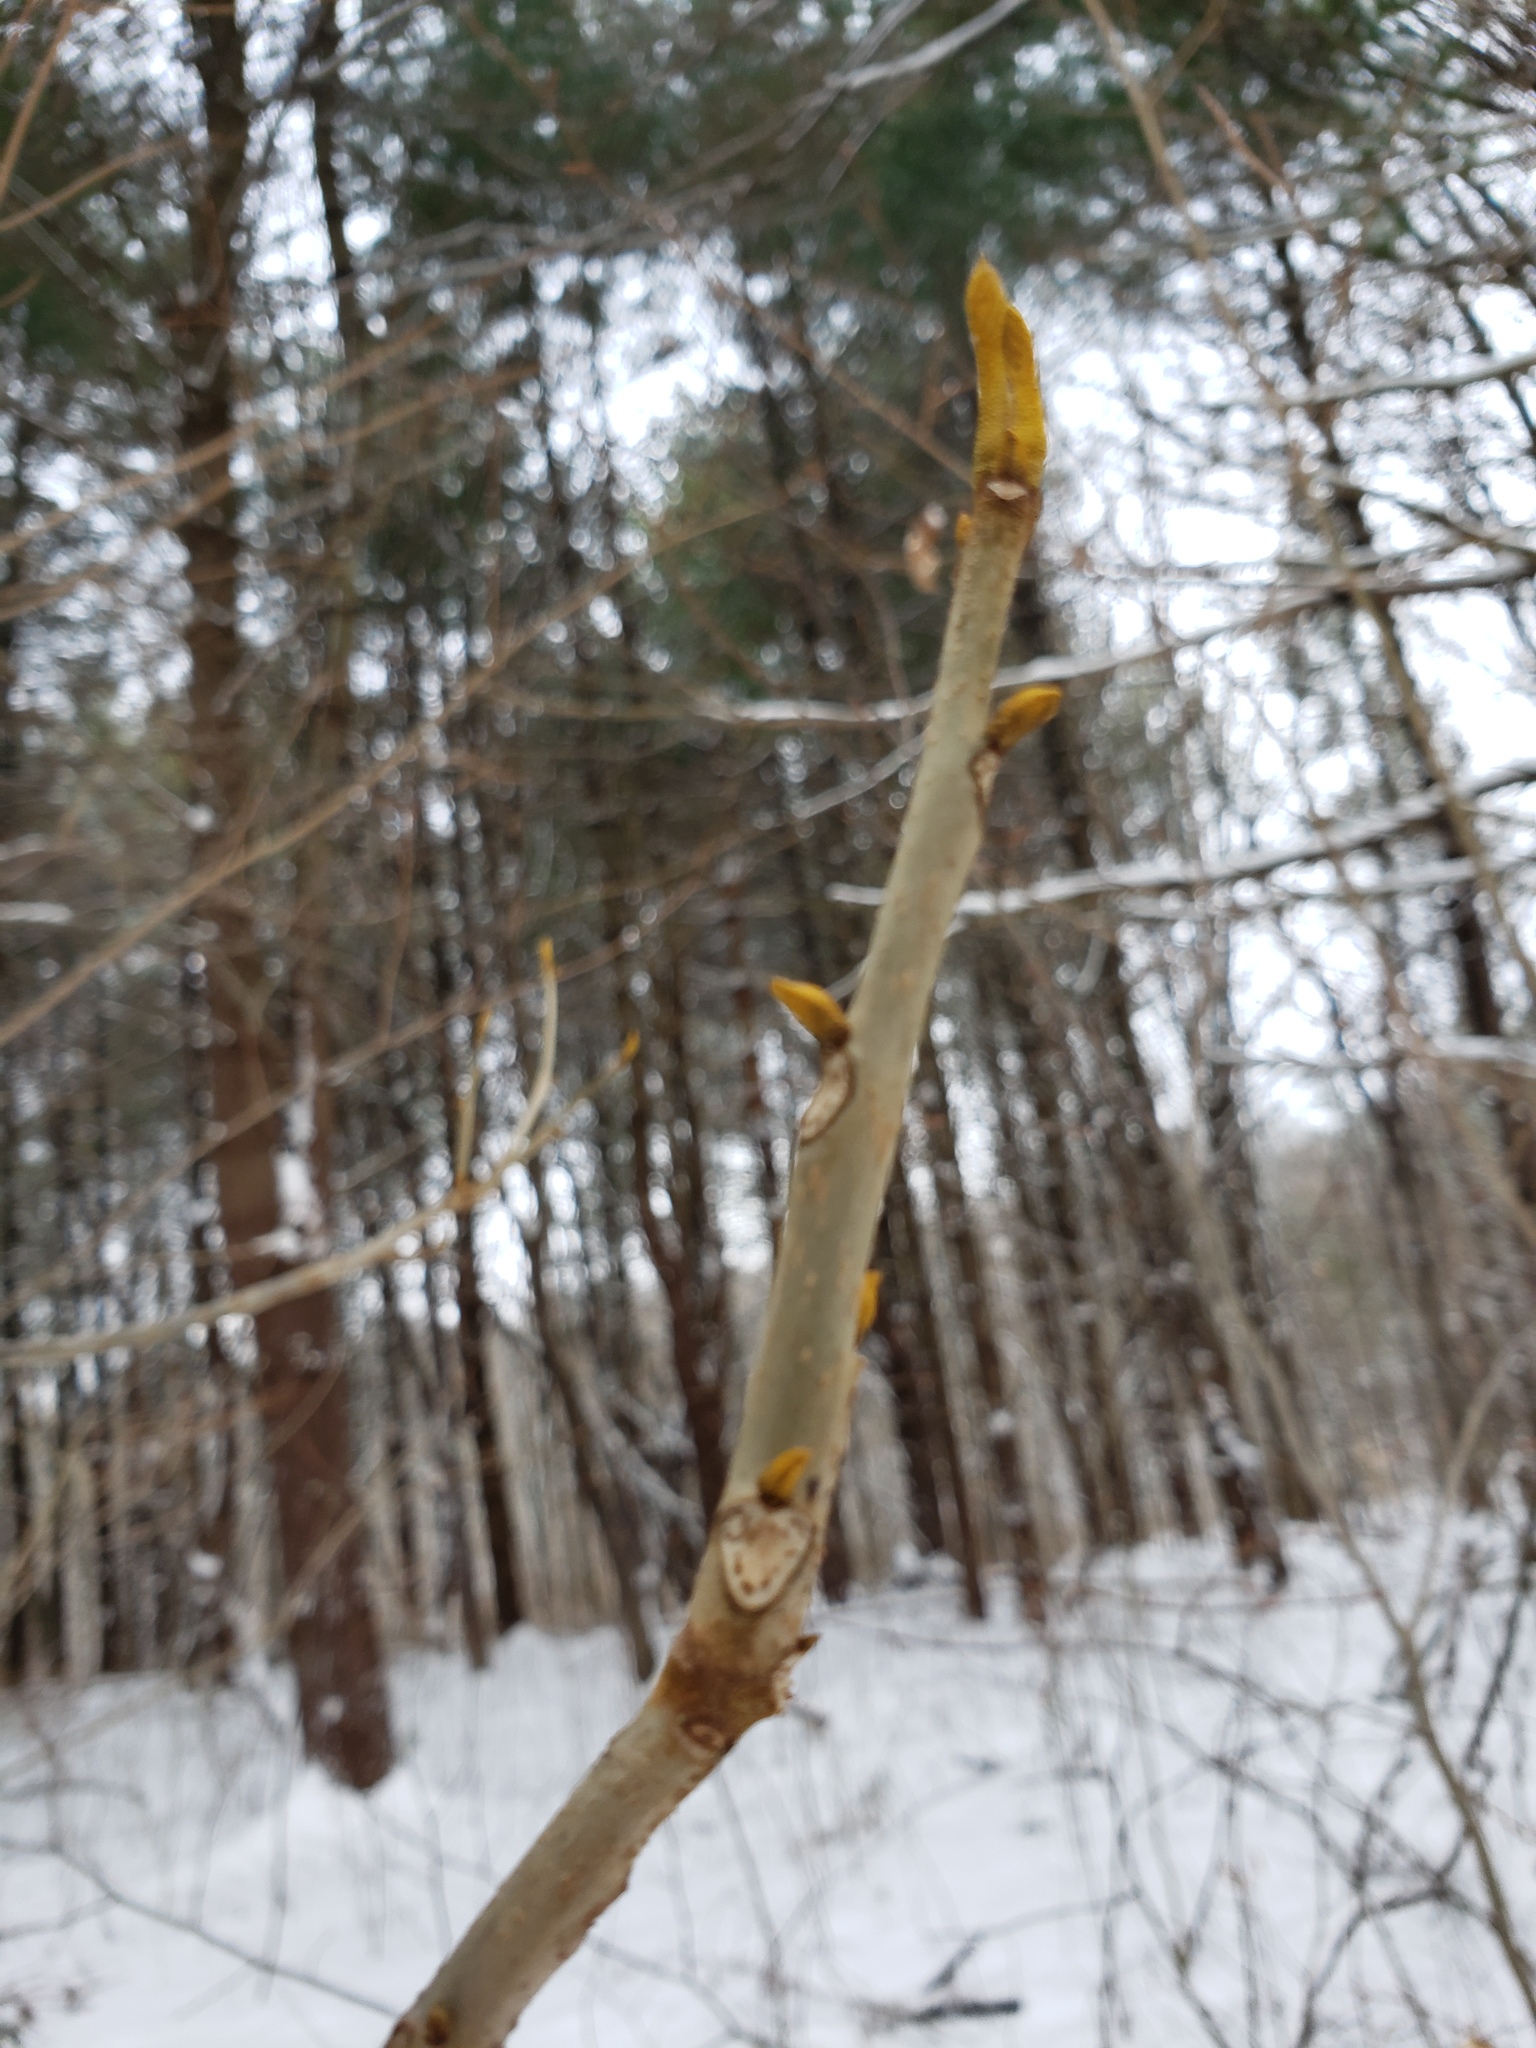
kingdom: Plantae
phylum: Tracheophyta
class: Magnoliopsida
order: Fagales
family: Juglandaceae
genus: Carya
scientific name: Carya cordiformis
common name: Bitternut hickory
